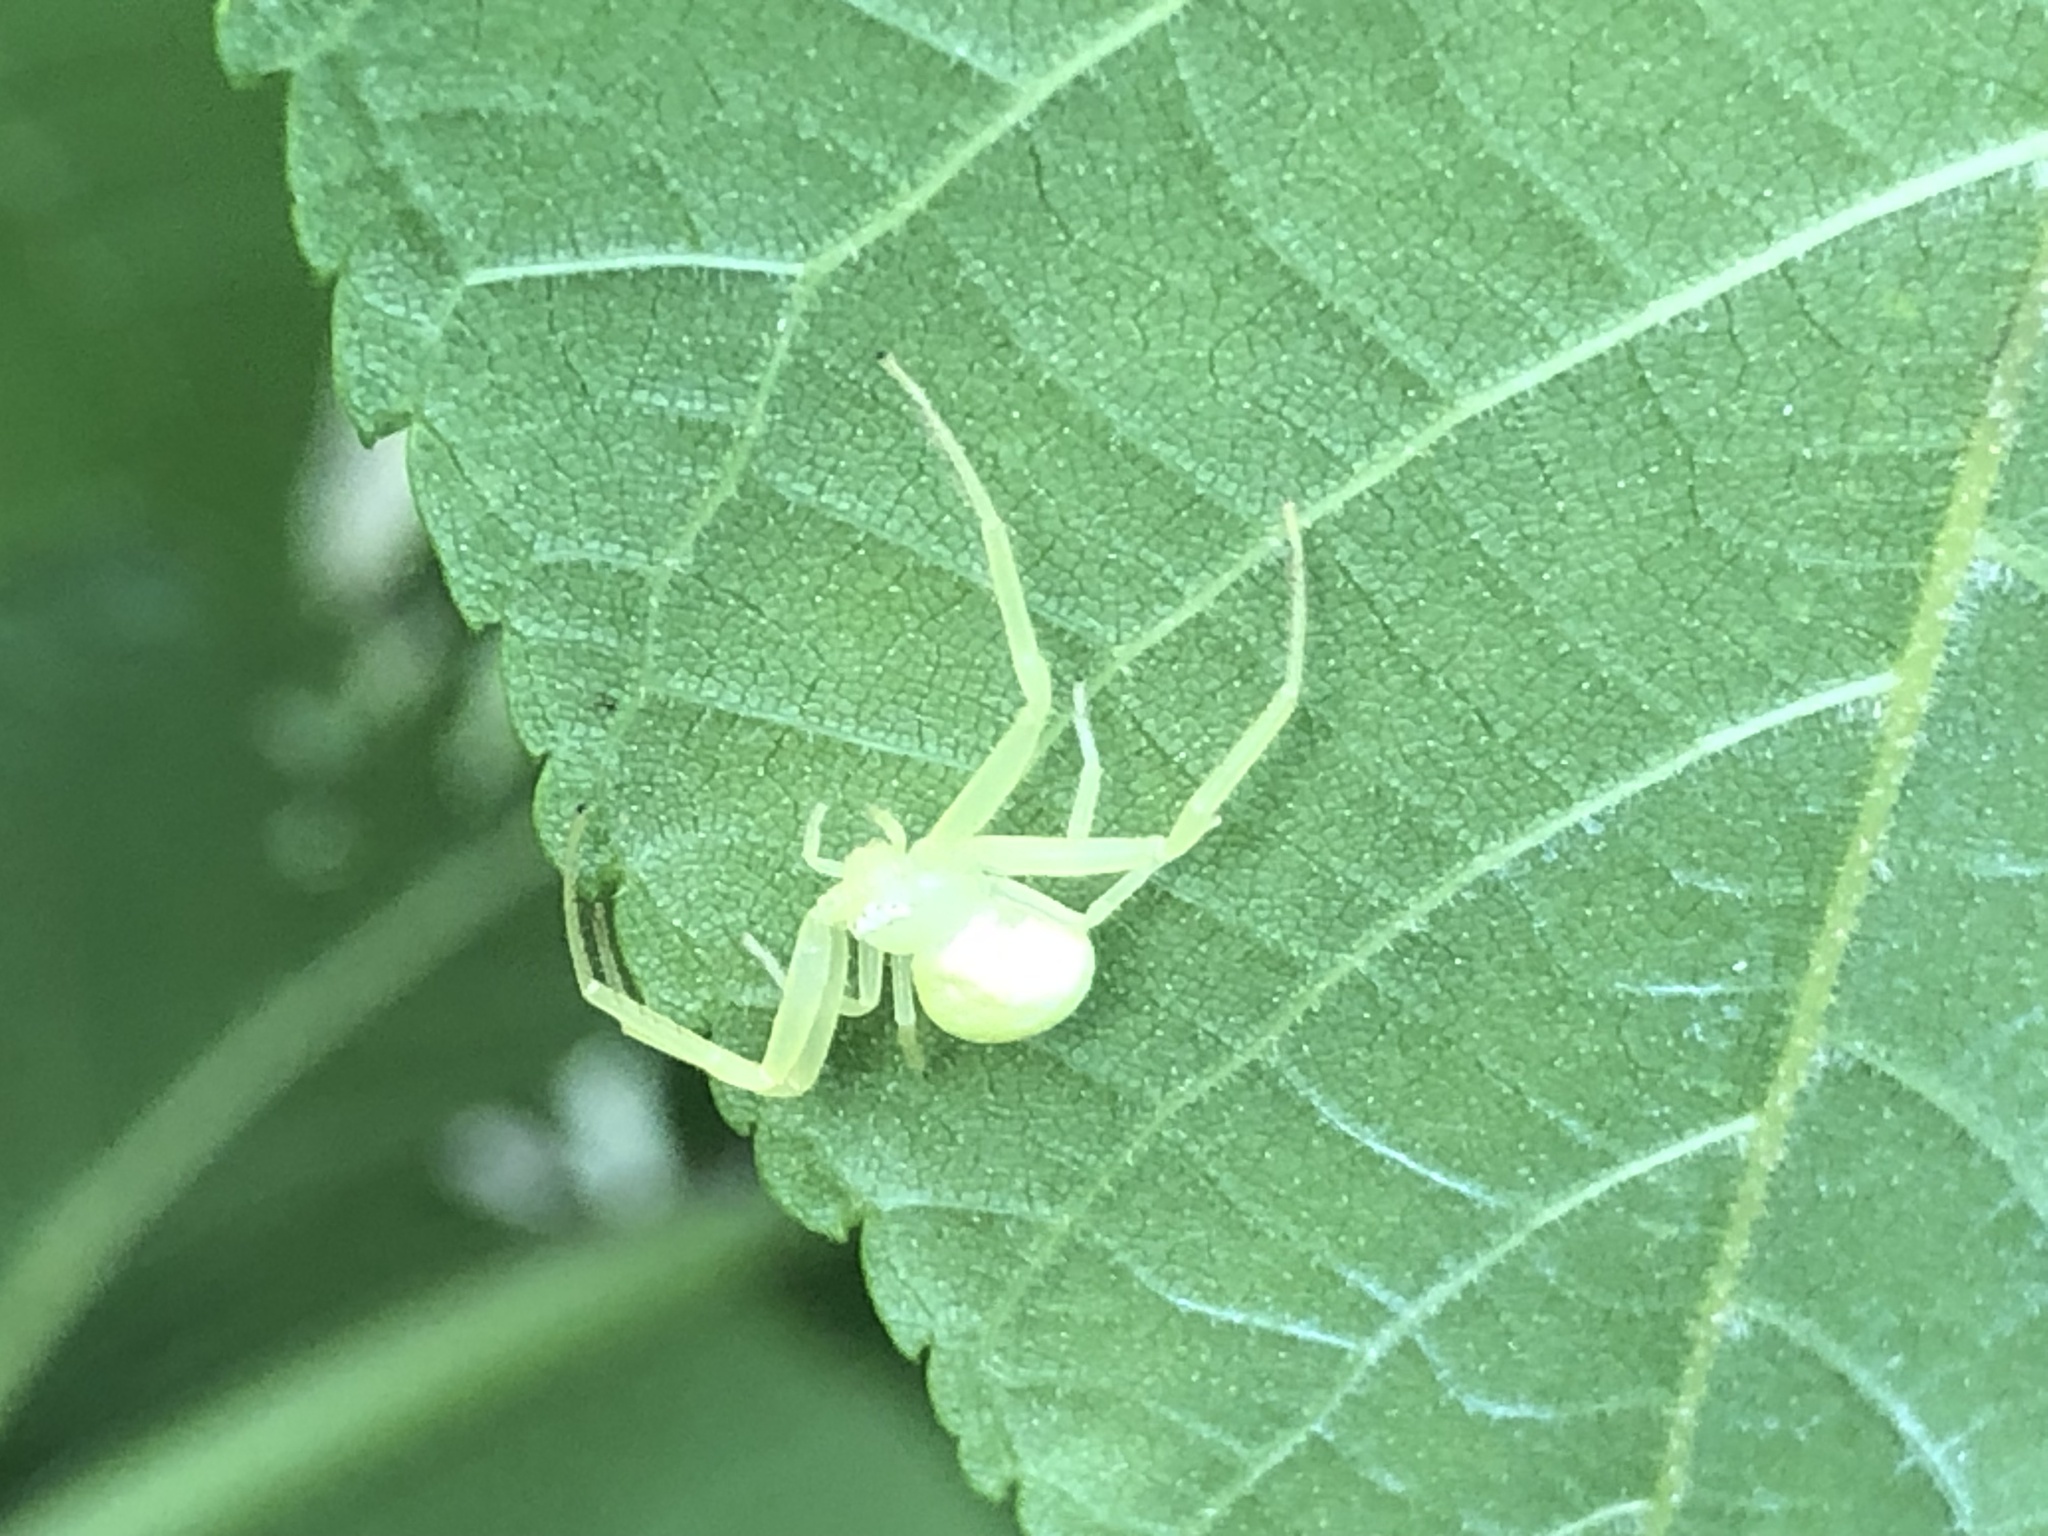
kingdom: Animalia
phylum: Arthropoda
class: Arachnida
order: Araneae
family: Thomisidae
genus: Misumessus
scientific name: Misumessus oblongus
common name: American green crab spider
